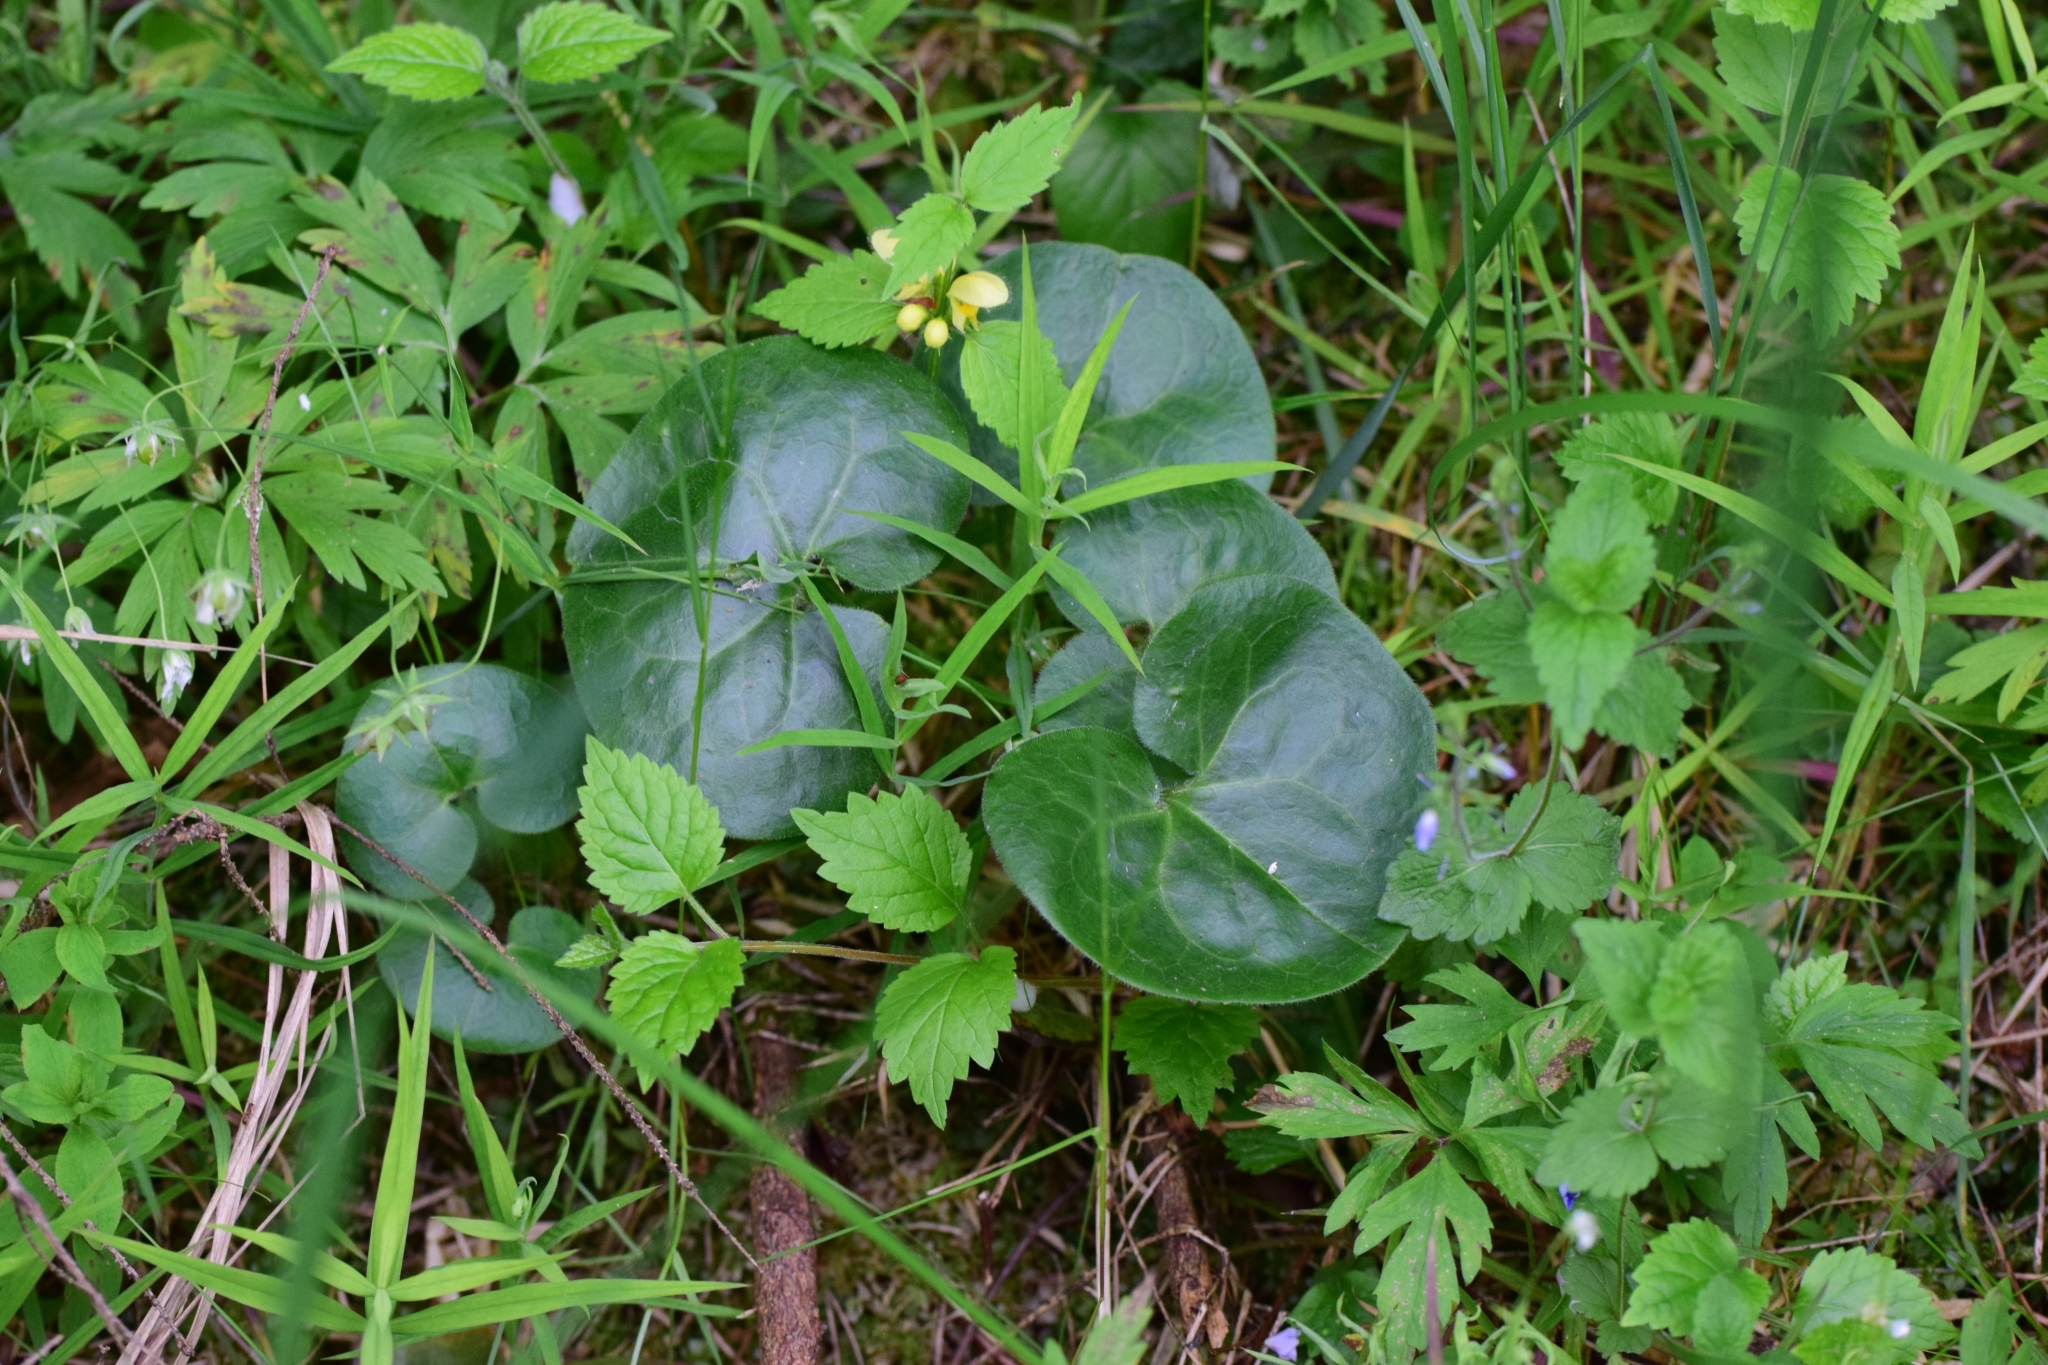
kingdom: Plantae
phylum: Tracheophyta
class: Magnoliopsida
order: Piperales
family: Aristolochiaceae
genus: Asarum
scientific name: Asarum europaeum
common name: Asarabacca
